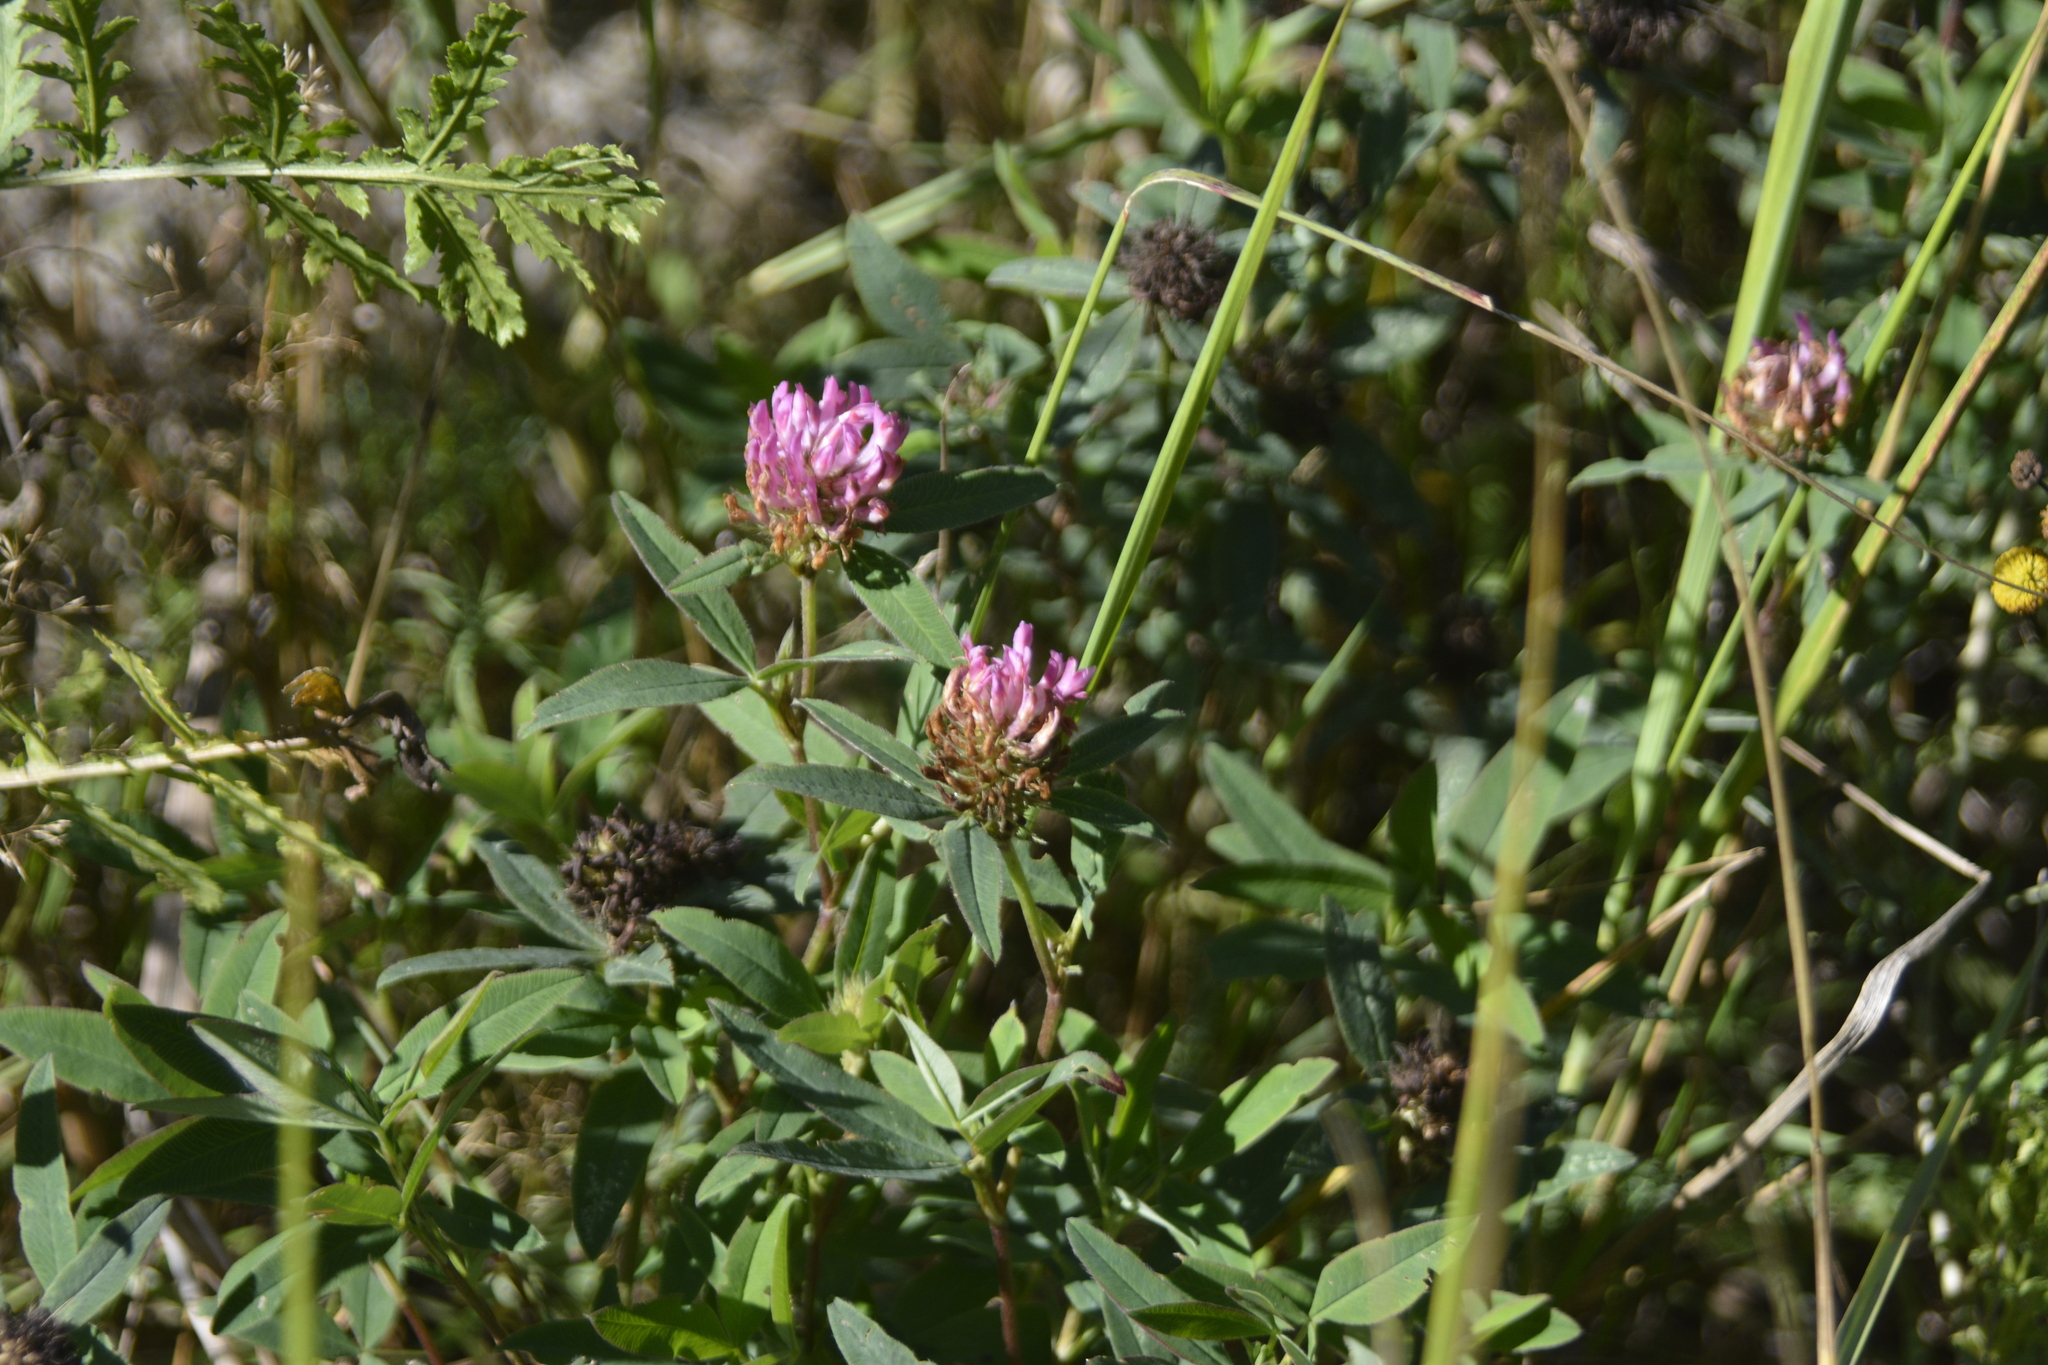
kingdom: Plantae
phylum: Tracheophyta
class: Magnoliopsida
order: Fabales
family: Fabaceae
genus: Trifolium
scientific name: Trifolium medium
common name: Zigzag clover
